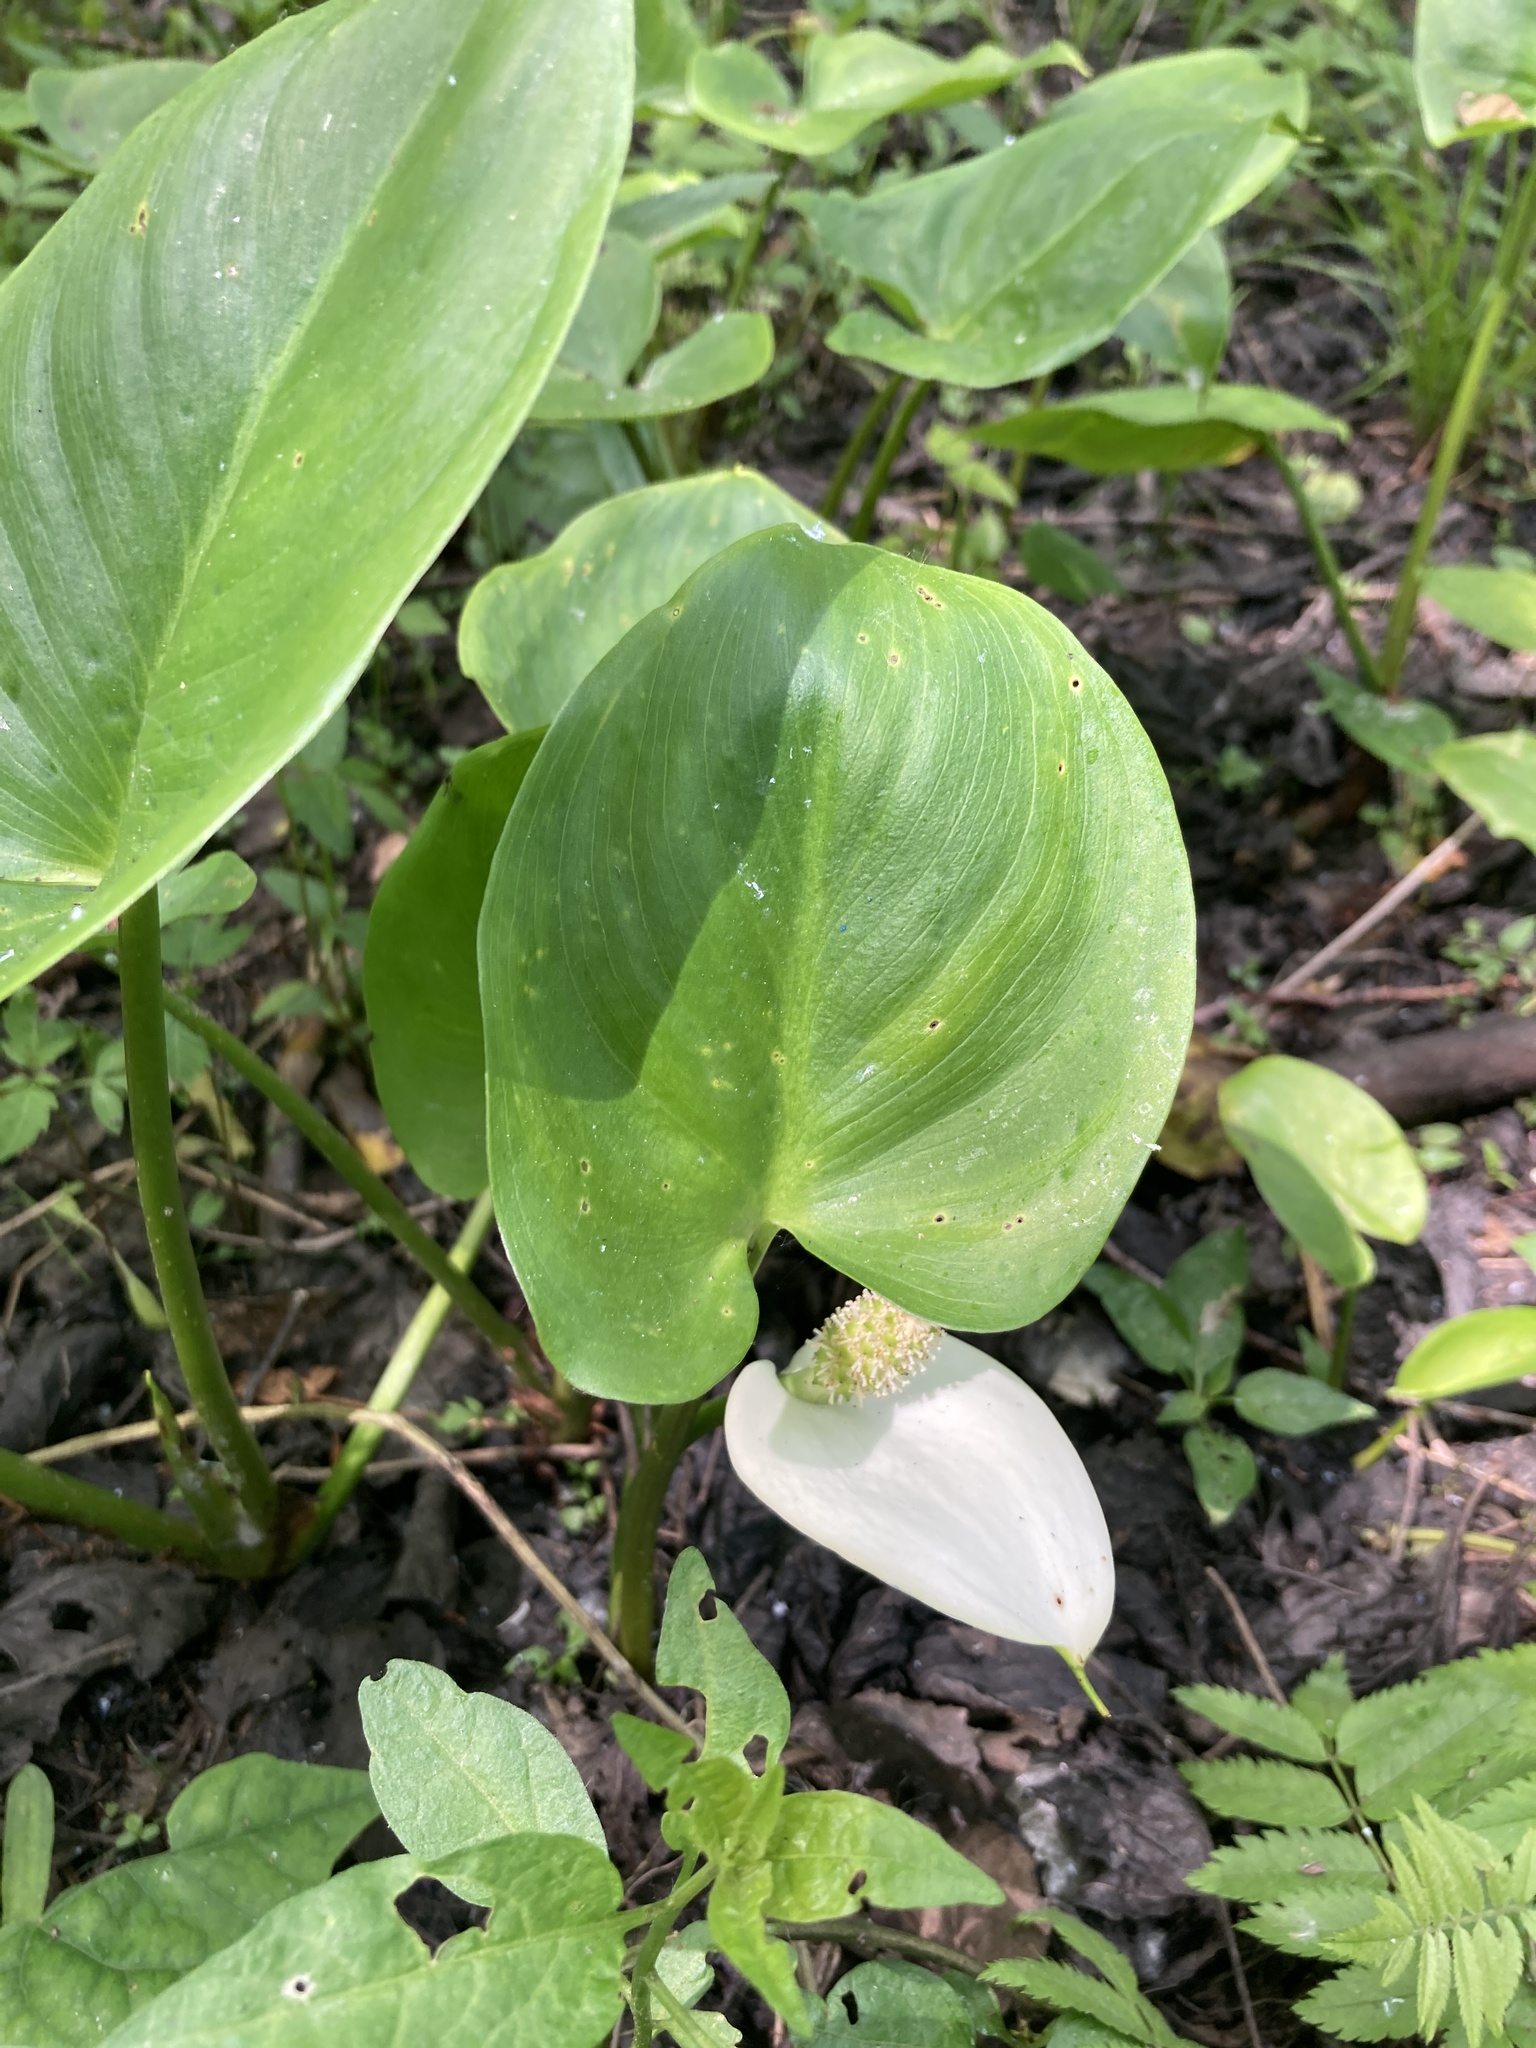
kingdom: Plantae
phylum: Tracheophyta
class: Liliopsida
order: Alismatales
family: Araceae
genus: Calla
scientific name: Calla palustris
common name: Bog arum
